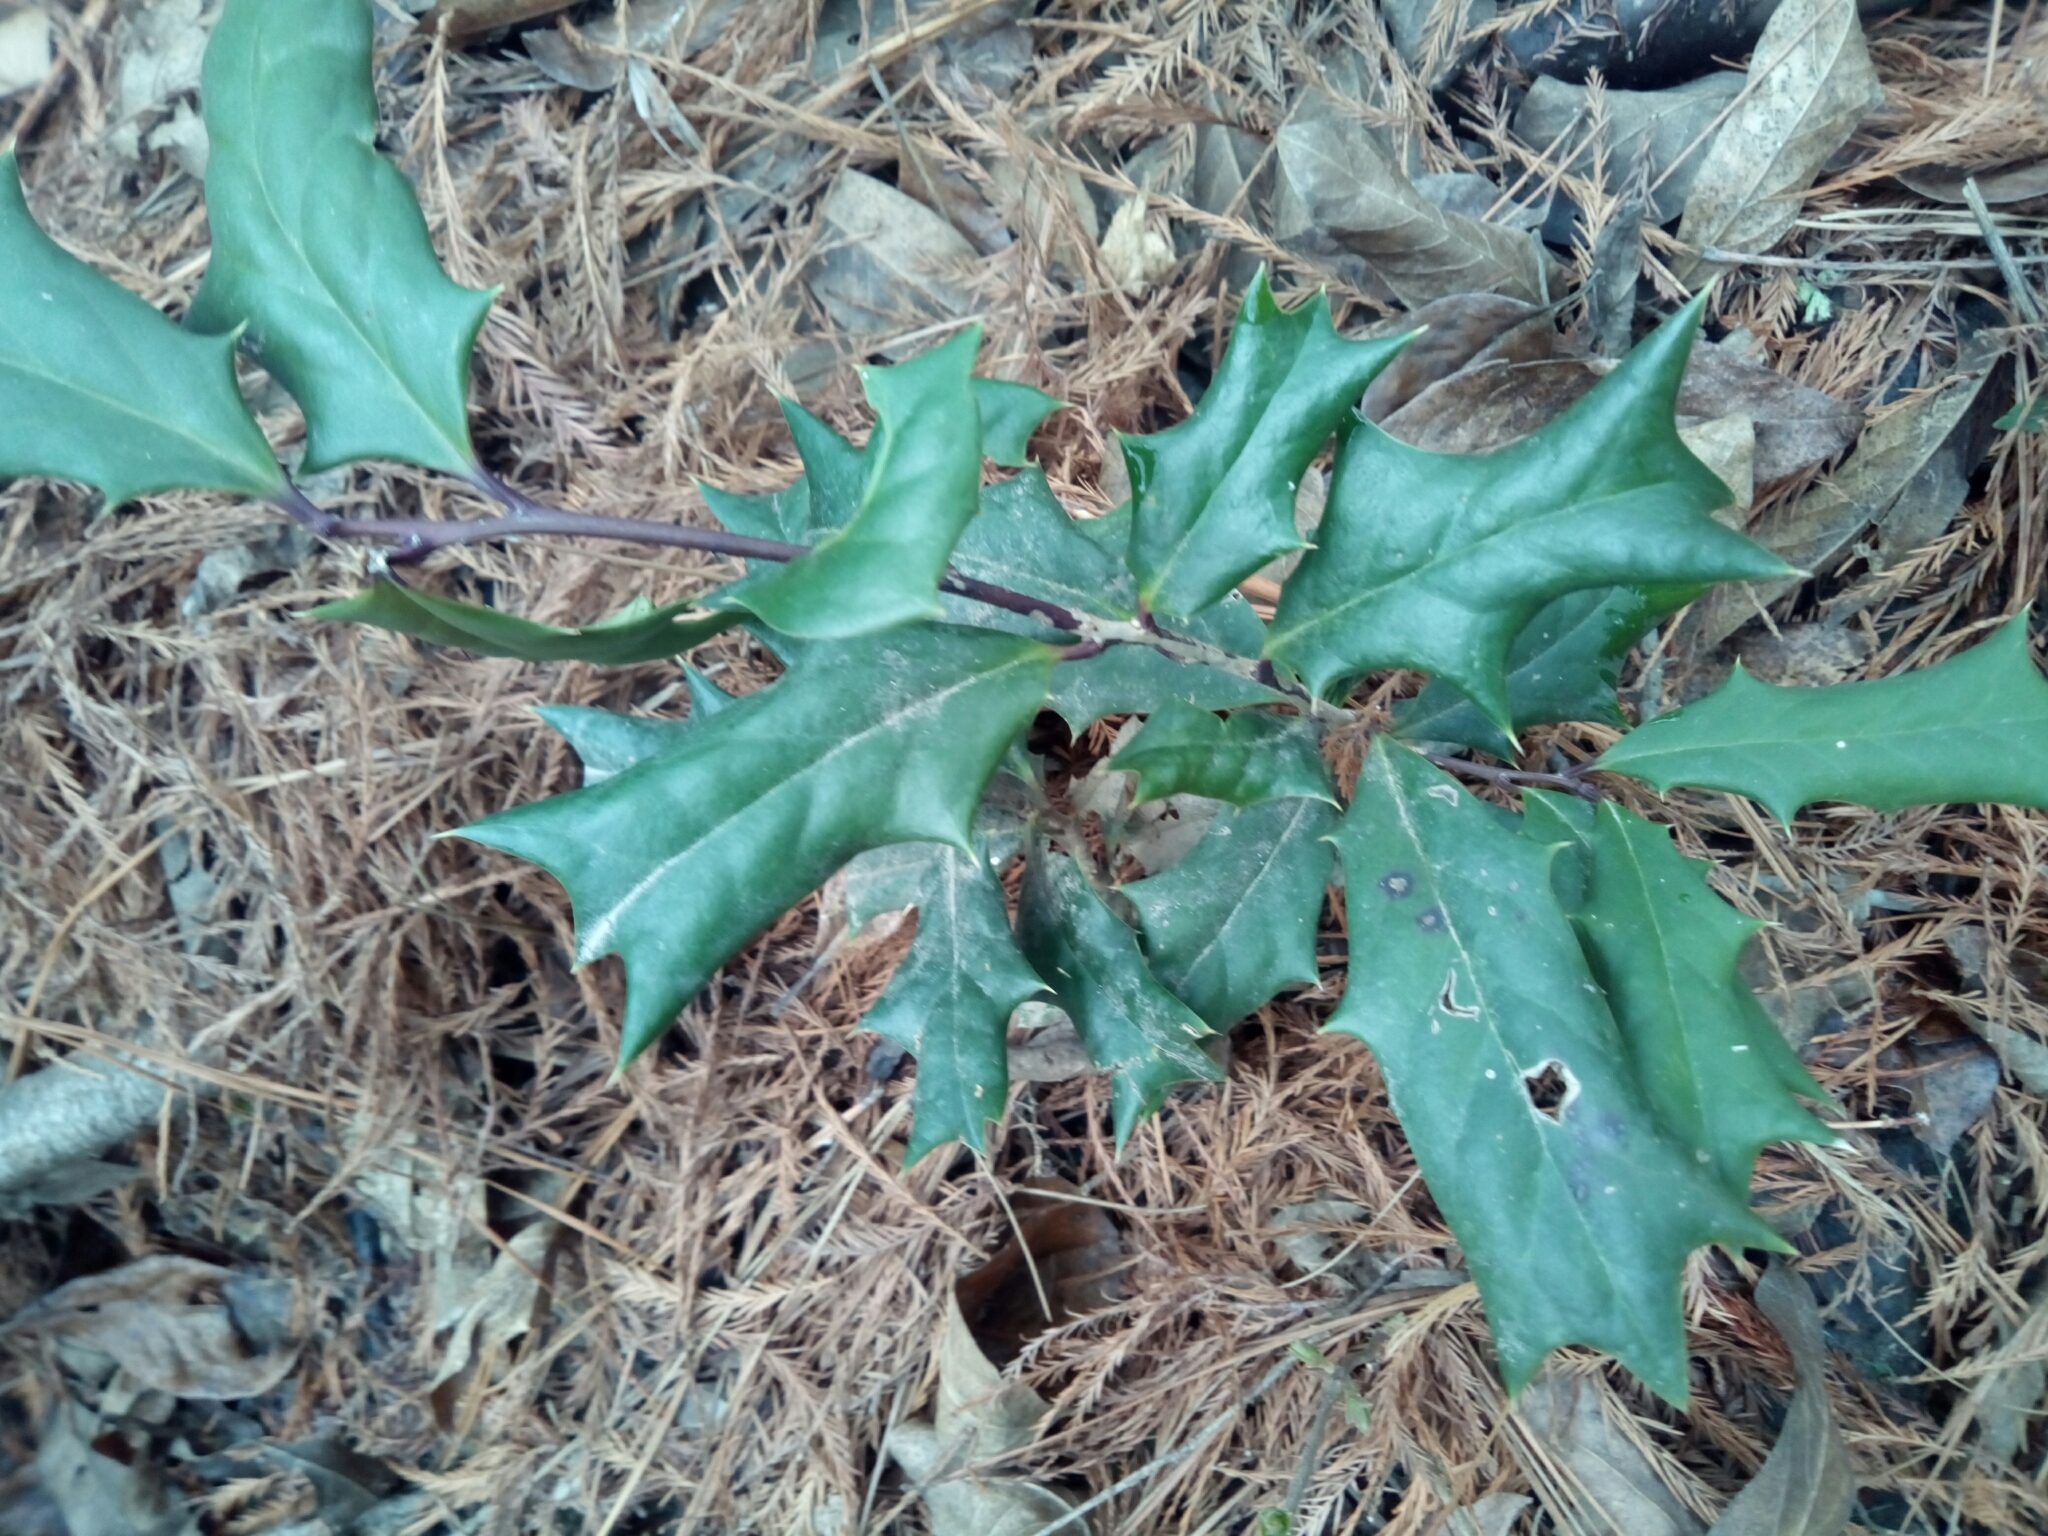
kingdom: Plantae
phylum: Tracheophyta
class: Magnoliopsida
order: Aquifoliales
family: Aquifoliaceae
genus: Ilex
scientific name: Ilex cornuta
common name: Chinese holly
